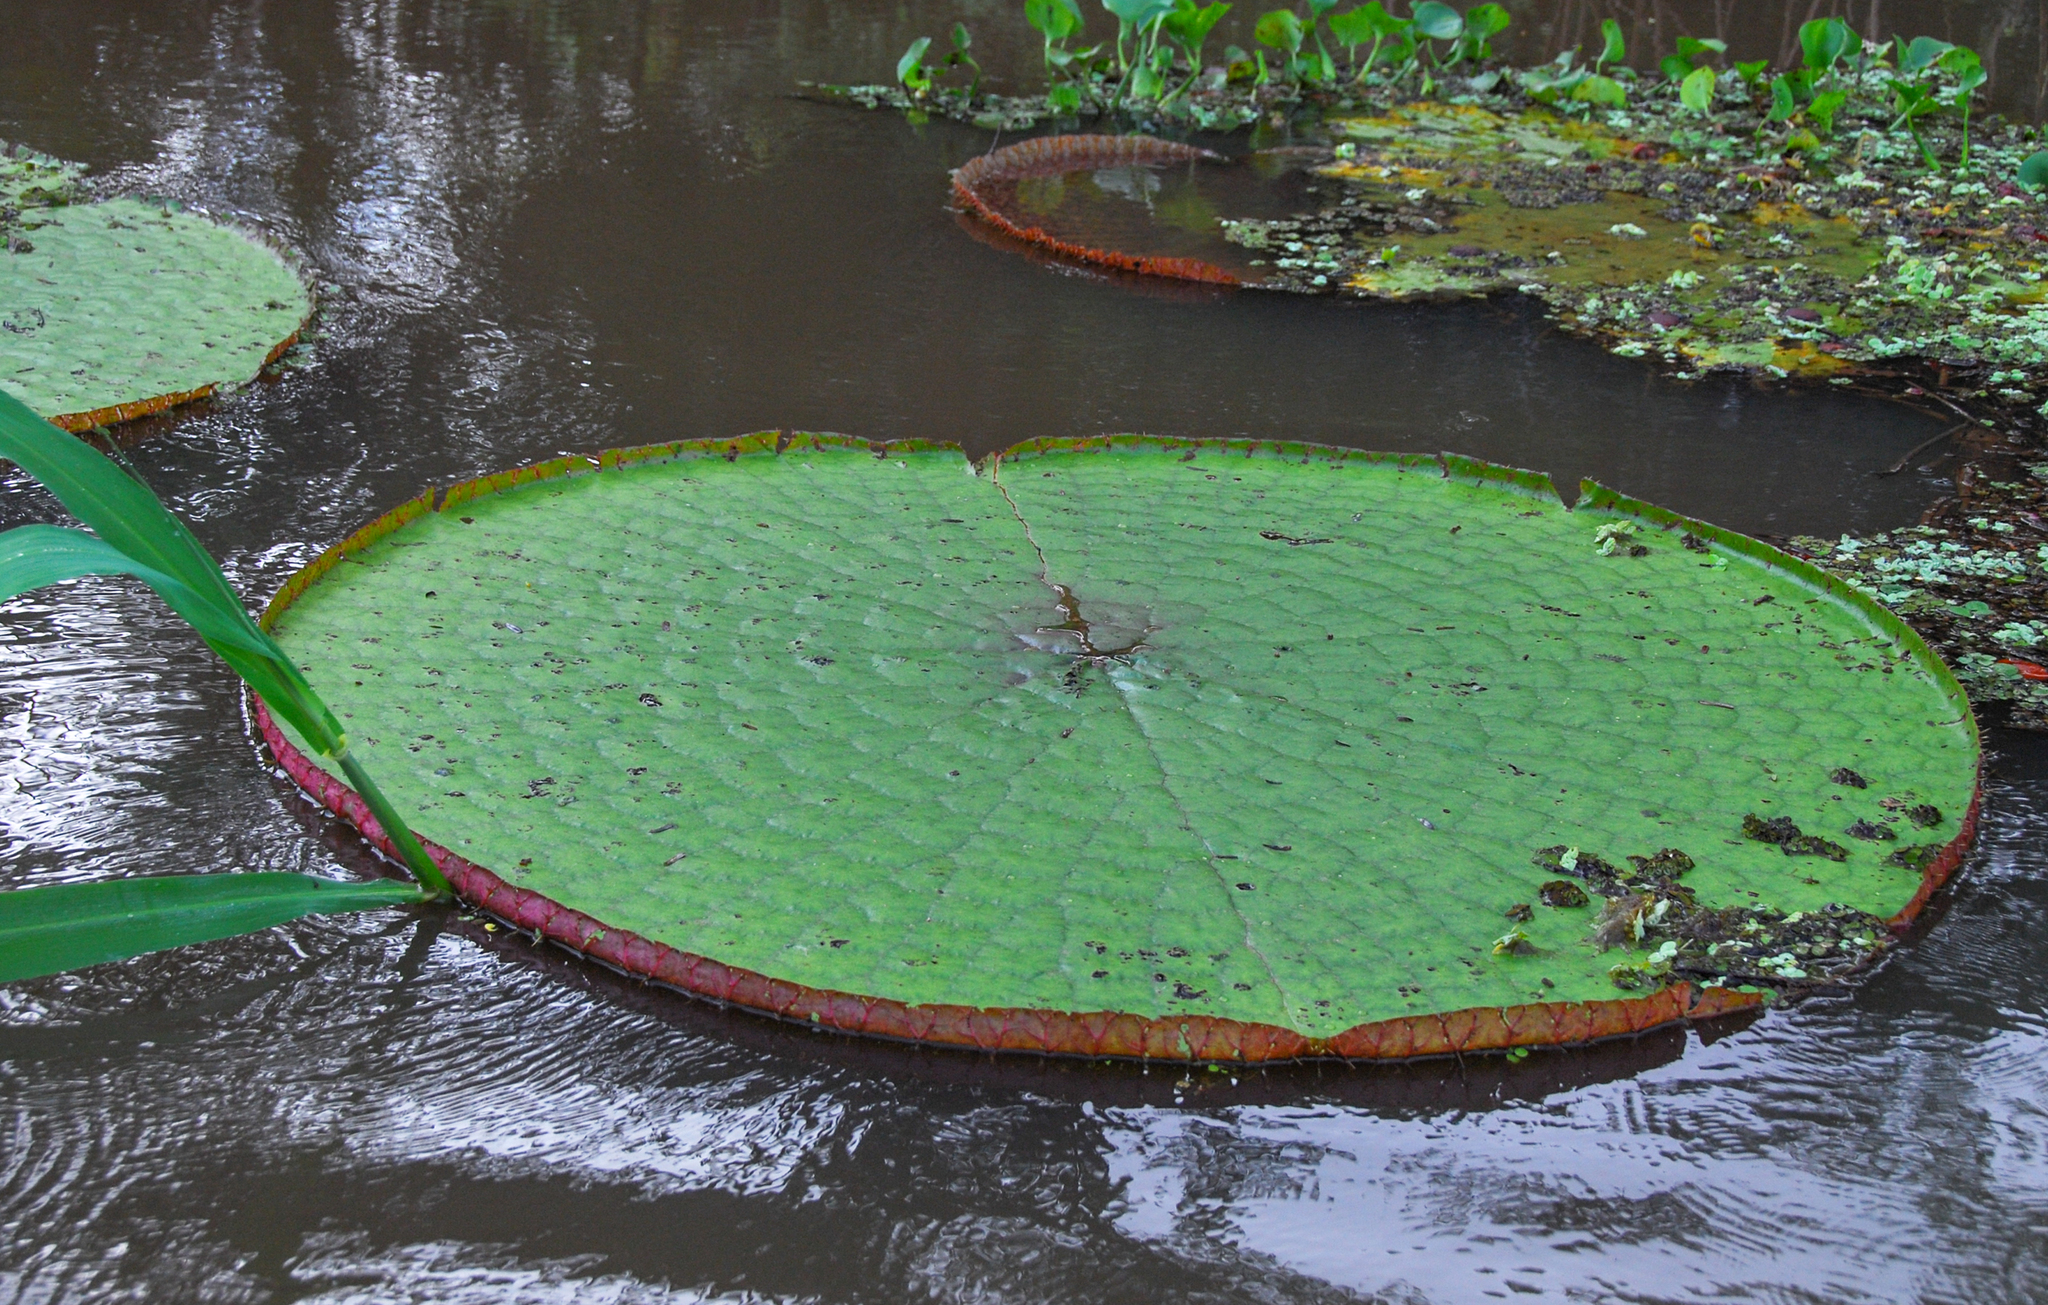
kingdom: Plantae
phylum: Tracheophyta
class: Magnoliopsida
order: Nymphaeales
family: Nymphaeaceae
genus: Victoria
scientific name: Victoria amazonica
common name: Amazon water-lily
